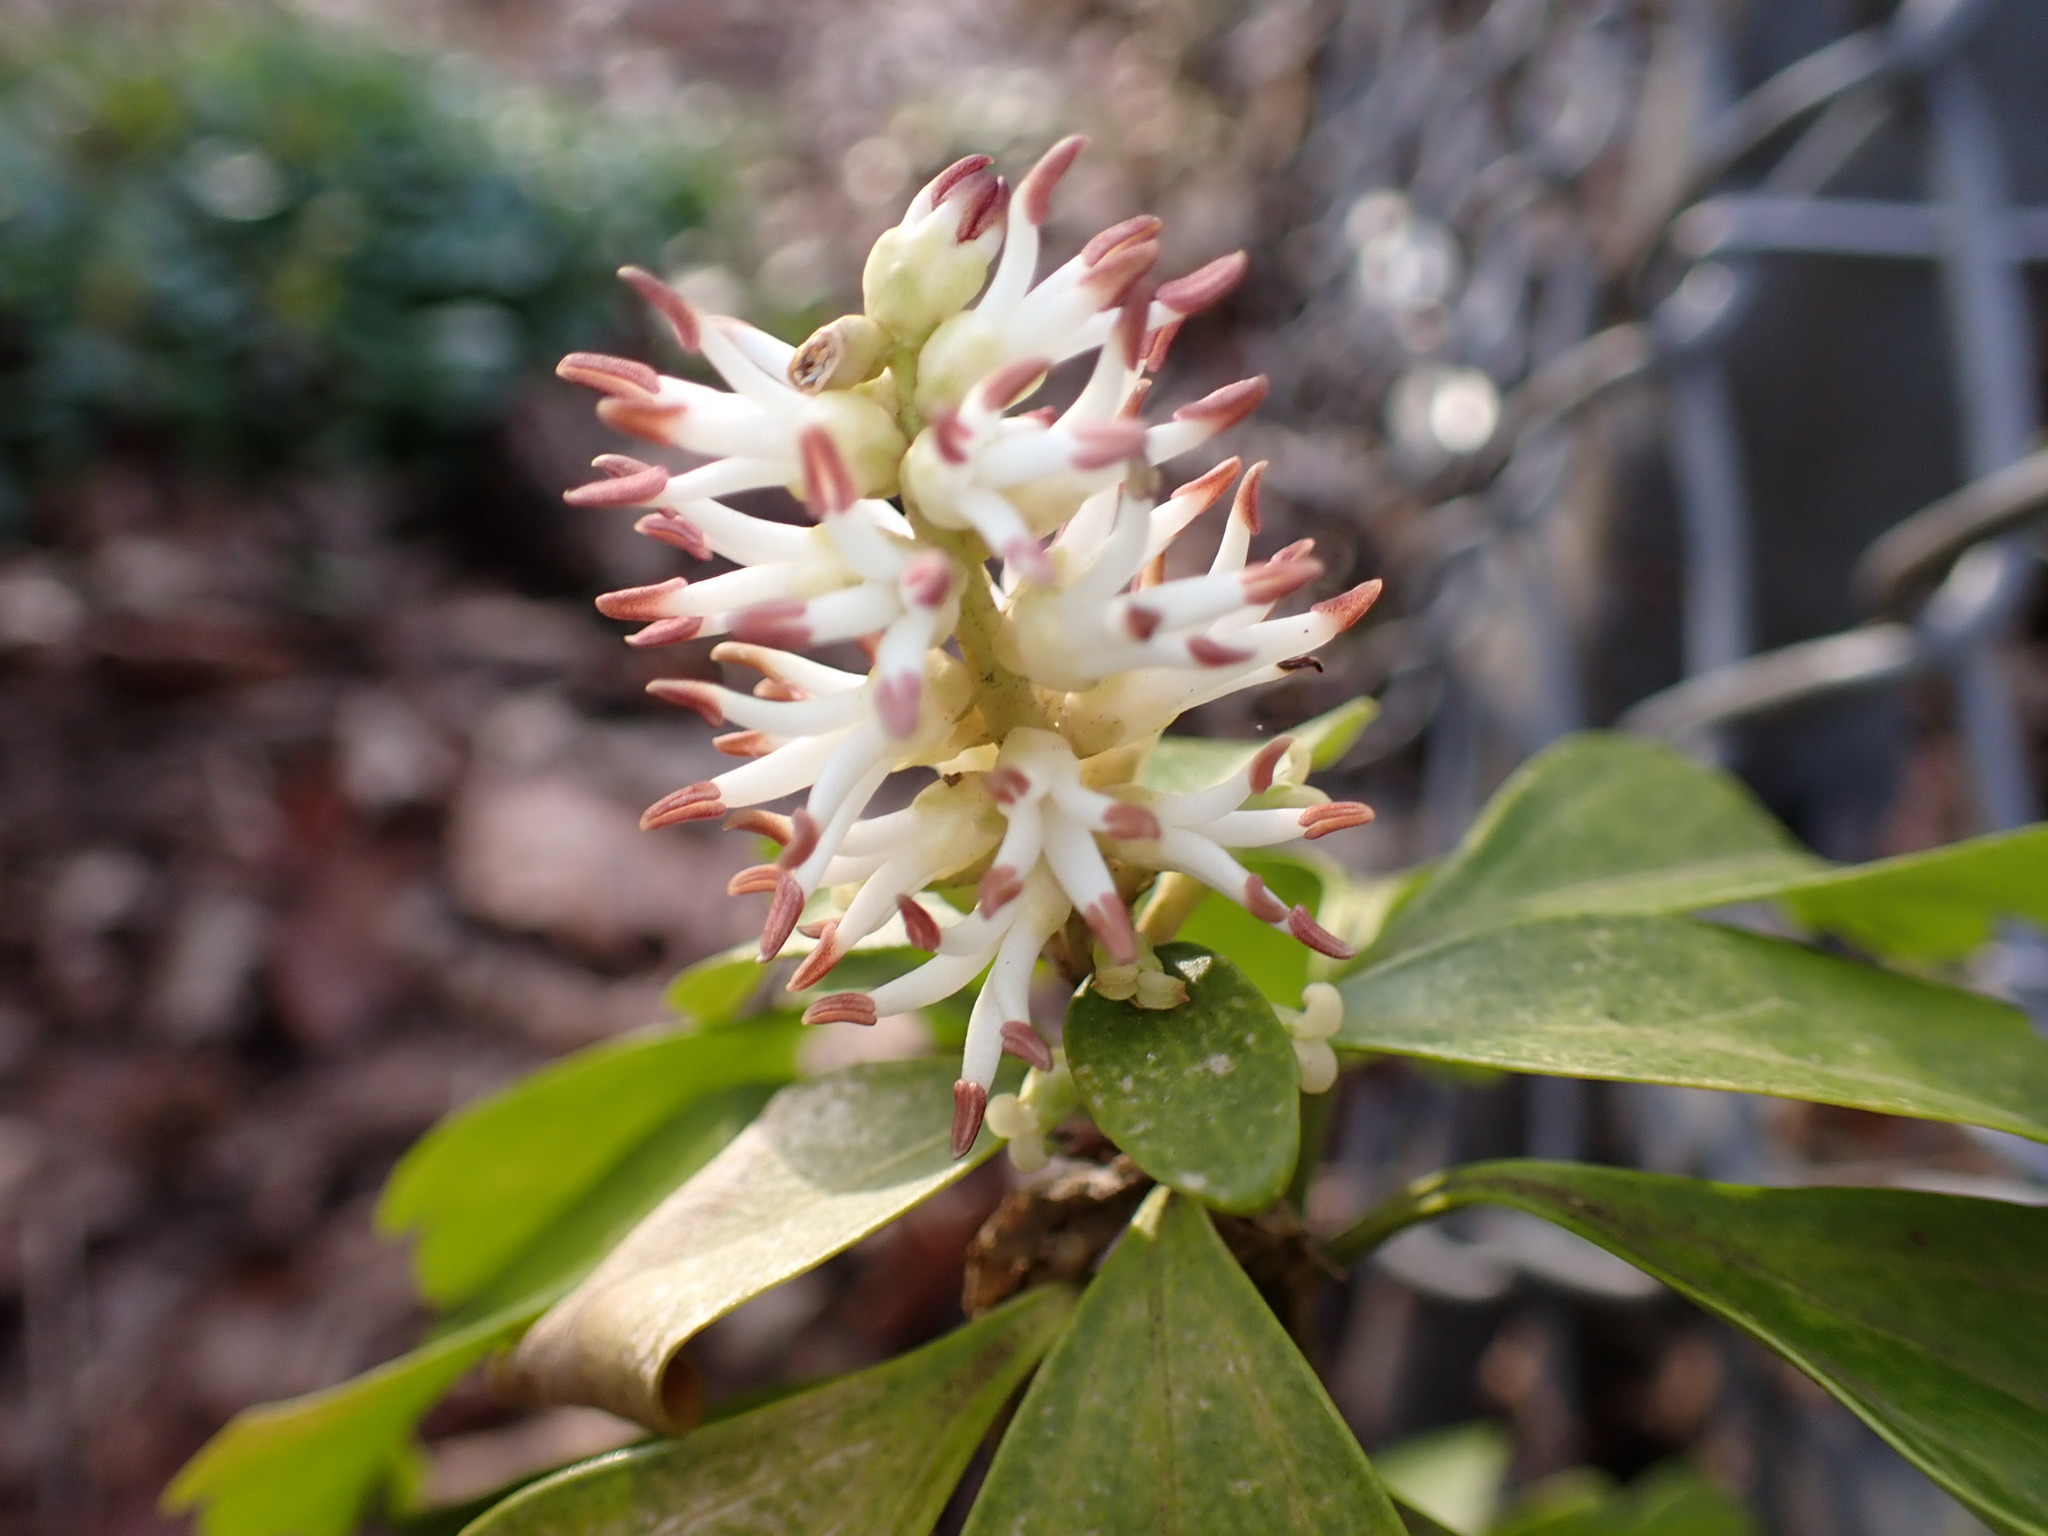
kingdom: Plantae
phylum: Tracheophyta
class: Magnoliopsida
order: Buxales
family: Buxaceae
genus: Pachysandra
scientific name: Pachysandra terminalis
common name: Japanese pachysandra
